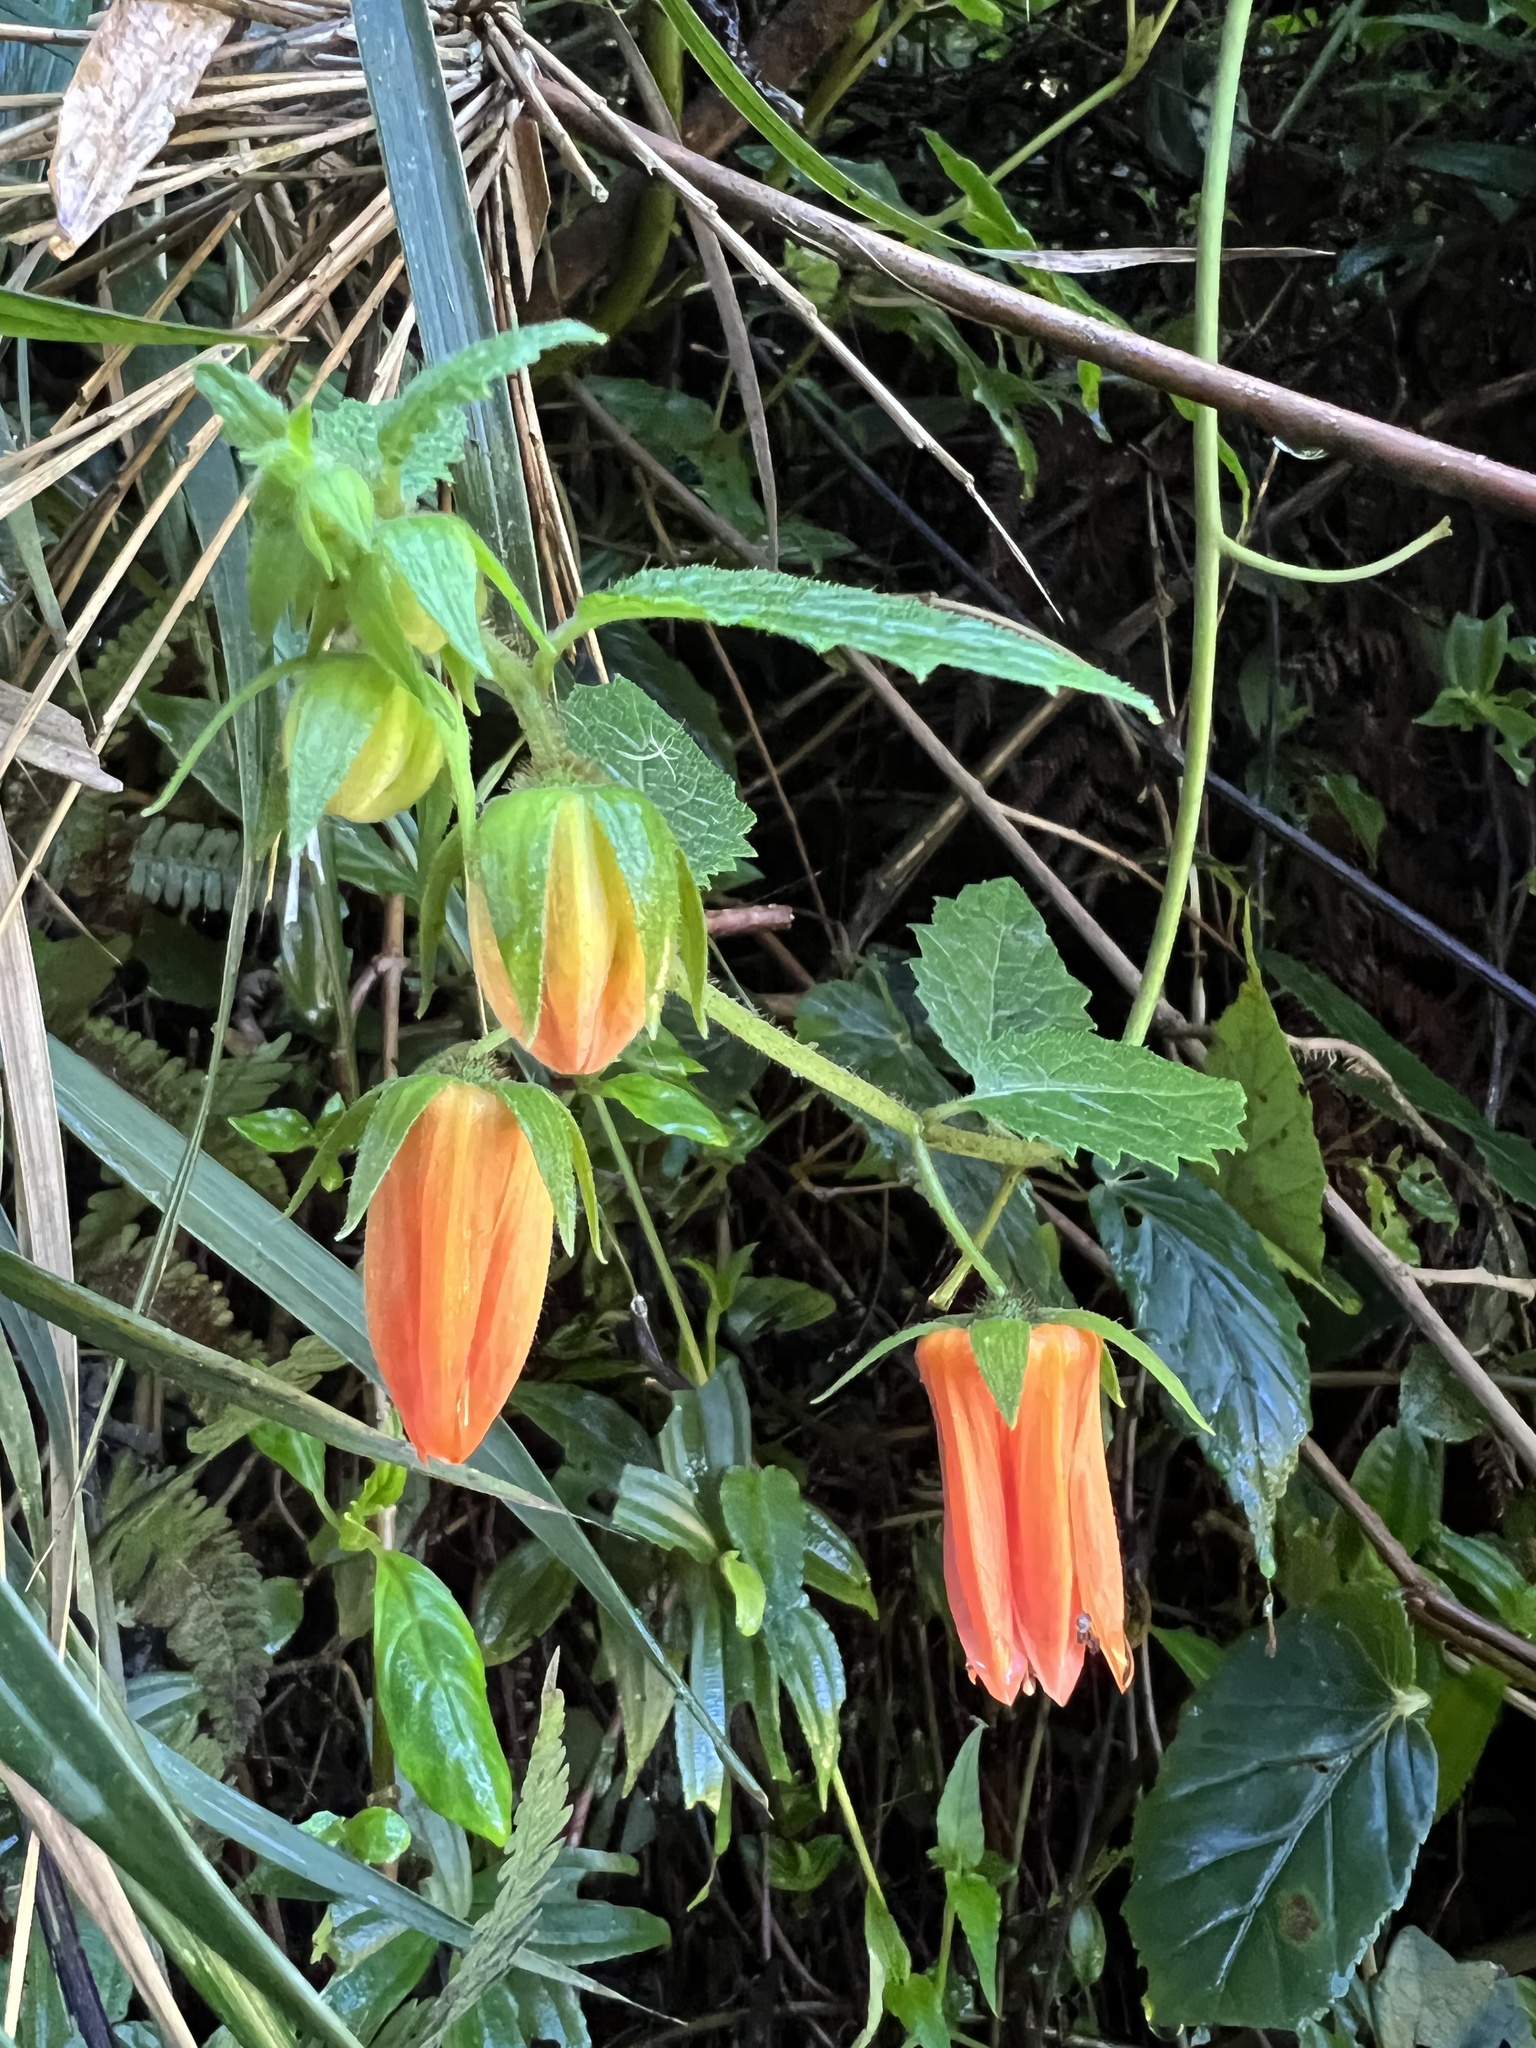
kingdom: Plantae
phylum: Tracheophyta
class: Magnoliopsida
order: Cornales
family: Loasaceae
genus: Nasa
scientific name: Nasa campaniflora
